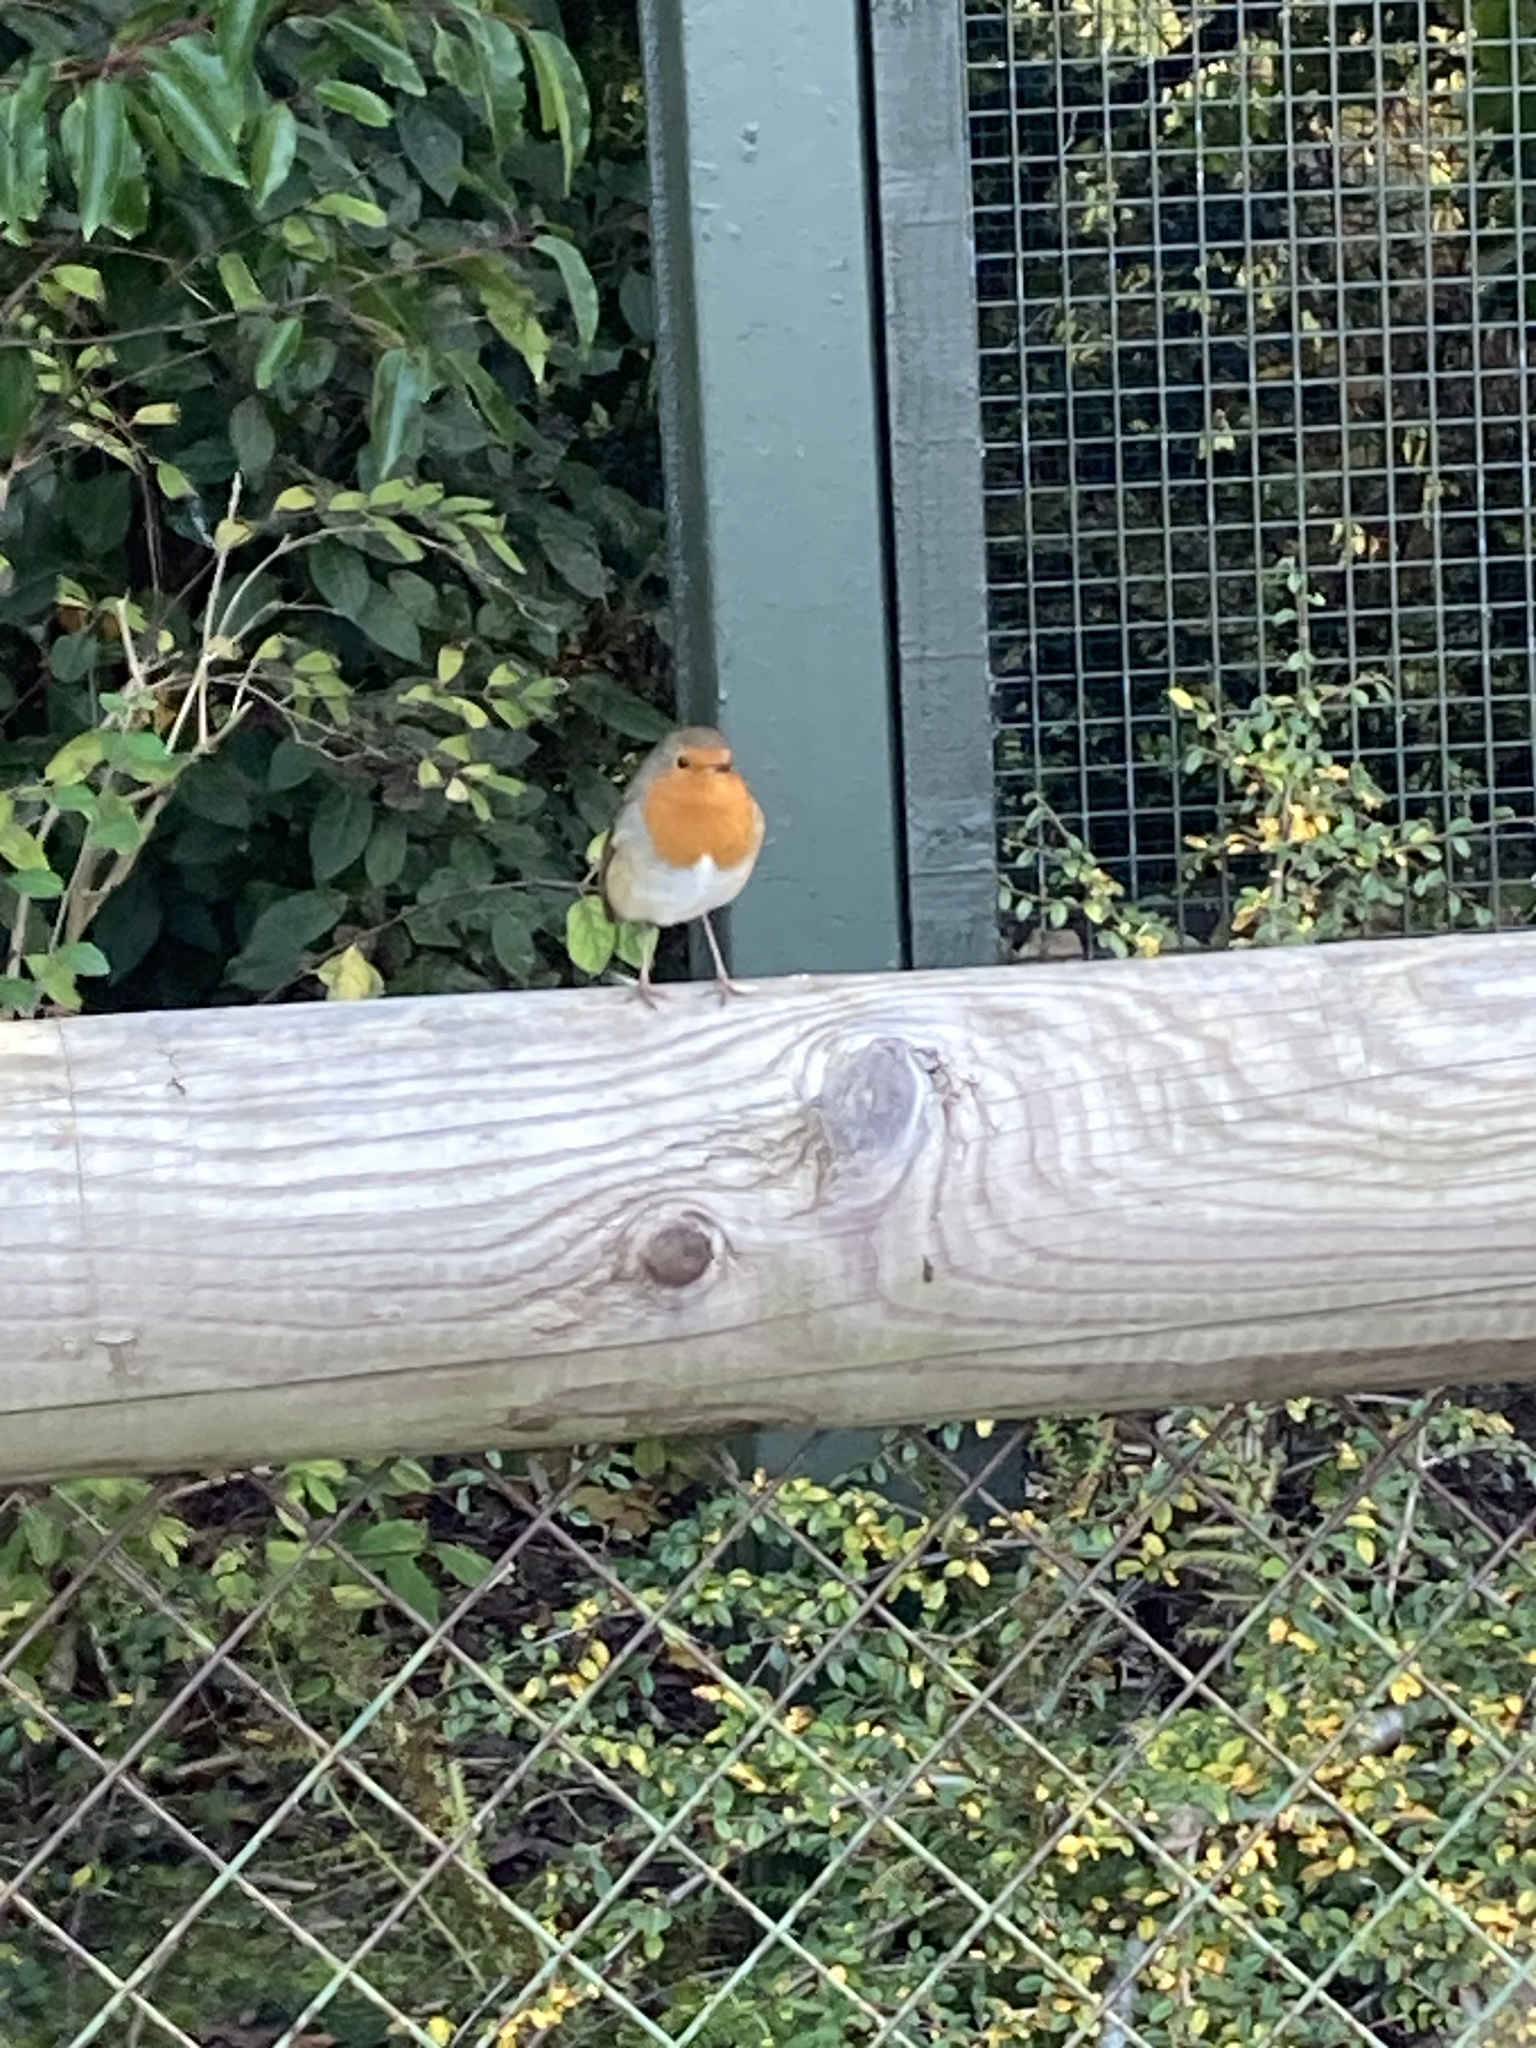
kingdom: Animalia
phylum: Chordata
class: Aves
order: Passeriformes
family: Muscicapidae
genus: Erithacus
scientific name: Erithacus rubecula
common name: European robin
